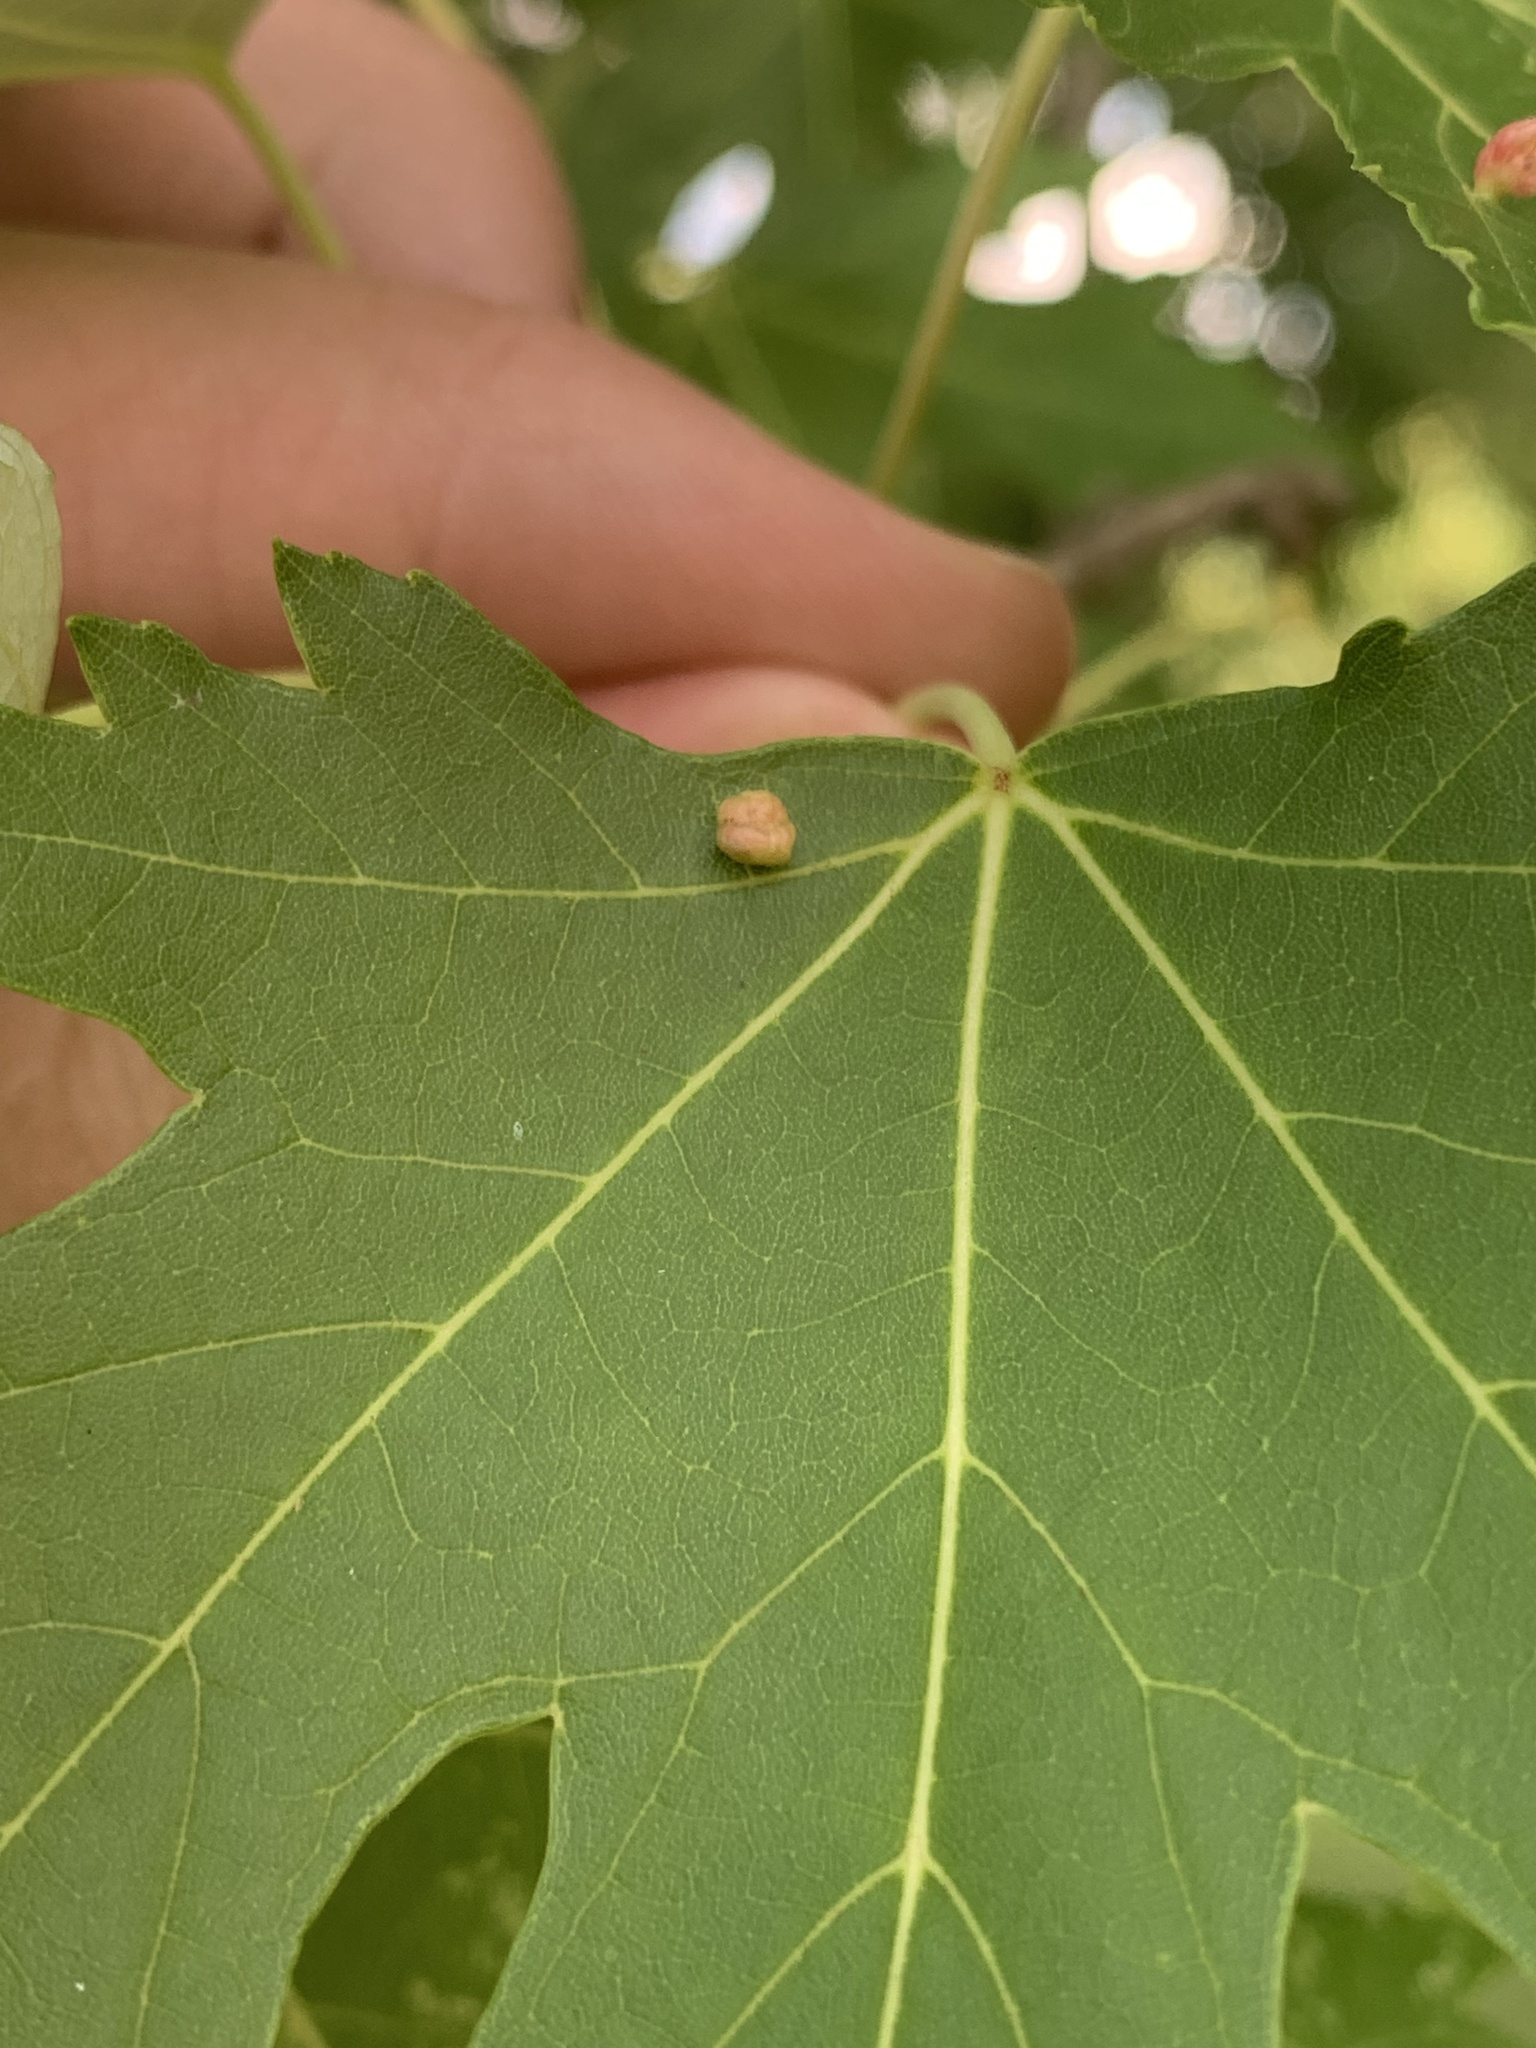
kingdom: Animalia
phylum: Arthropoda
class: Arachnida
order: Trombidiformes
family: Eriophyidae
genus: Vasates
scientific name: Vasates quadripedes
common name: Maple bladder gall mite
